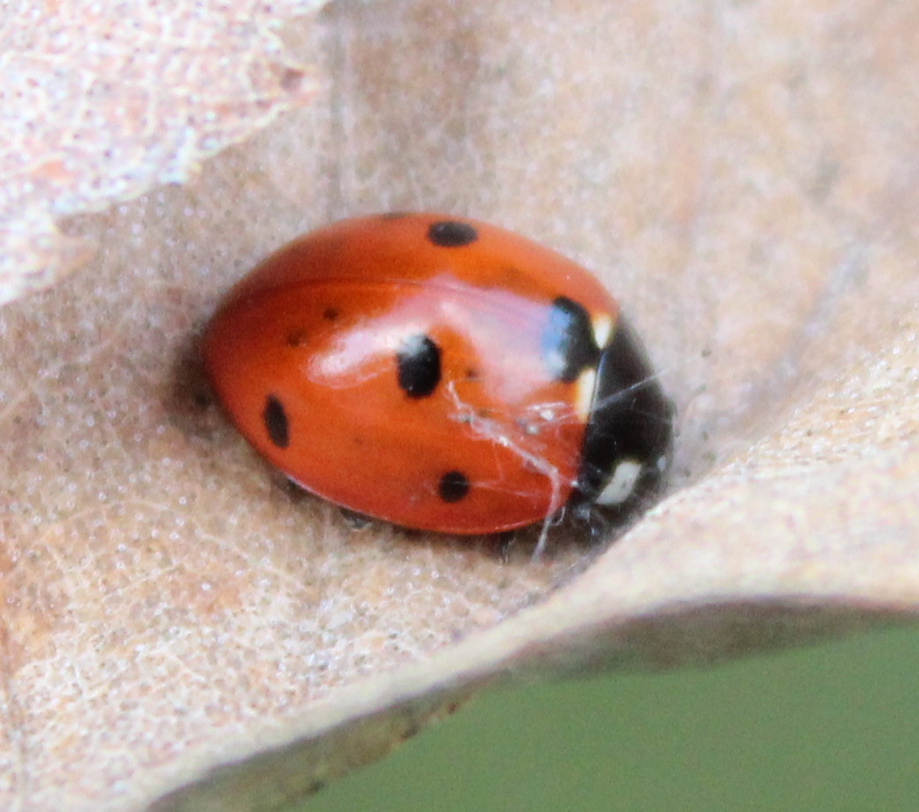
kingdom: Animalia
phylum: Arthropoda
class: Insecta
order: Coleoptera
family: Coccinellidae
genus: Coccinella
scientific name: Coccinella septempunctata
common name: Sevenspotted lady beetle
